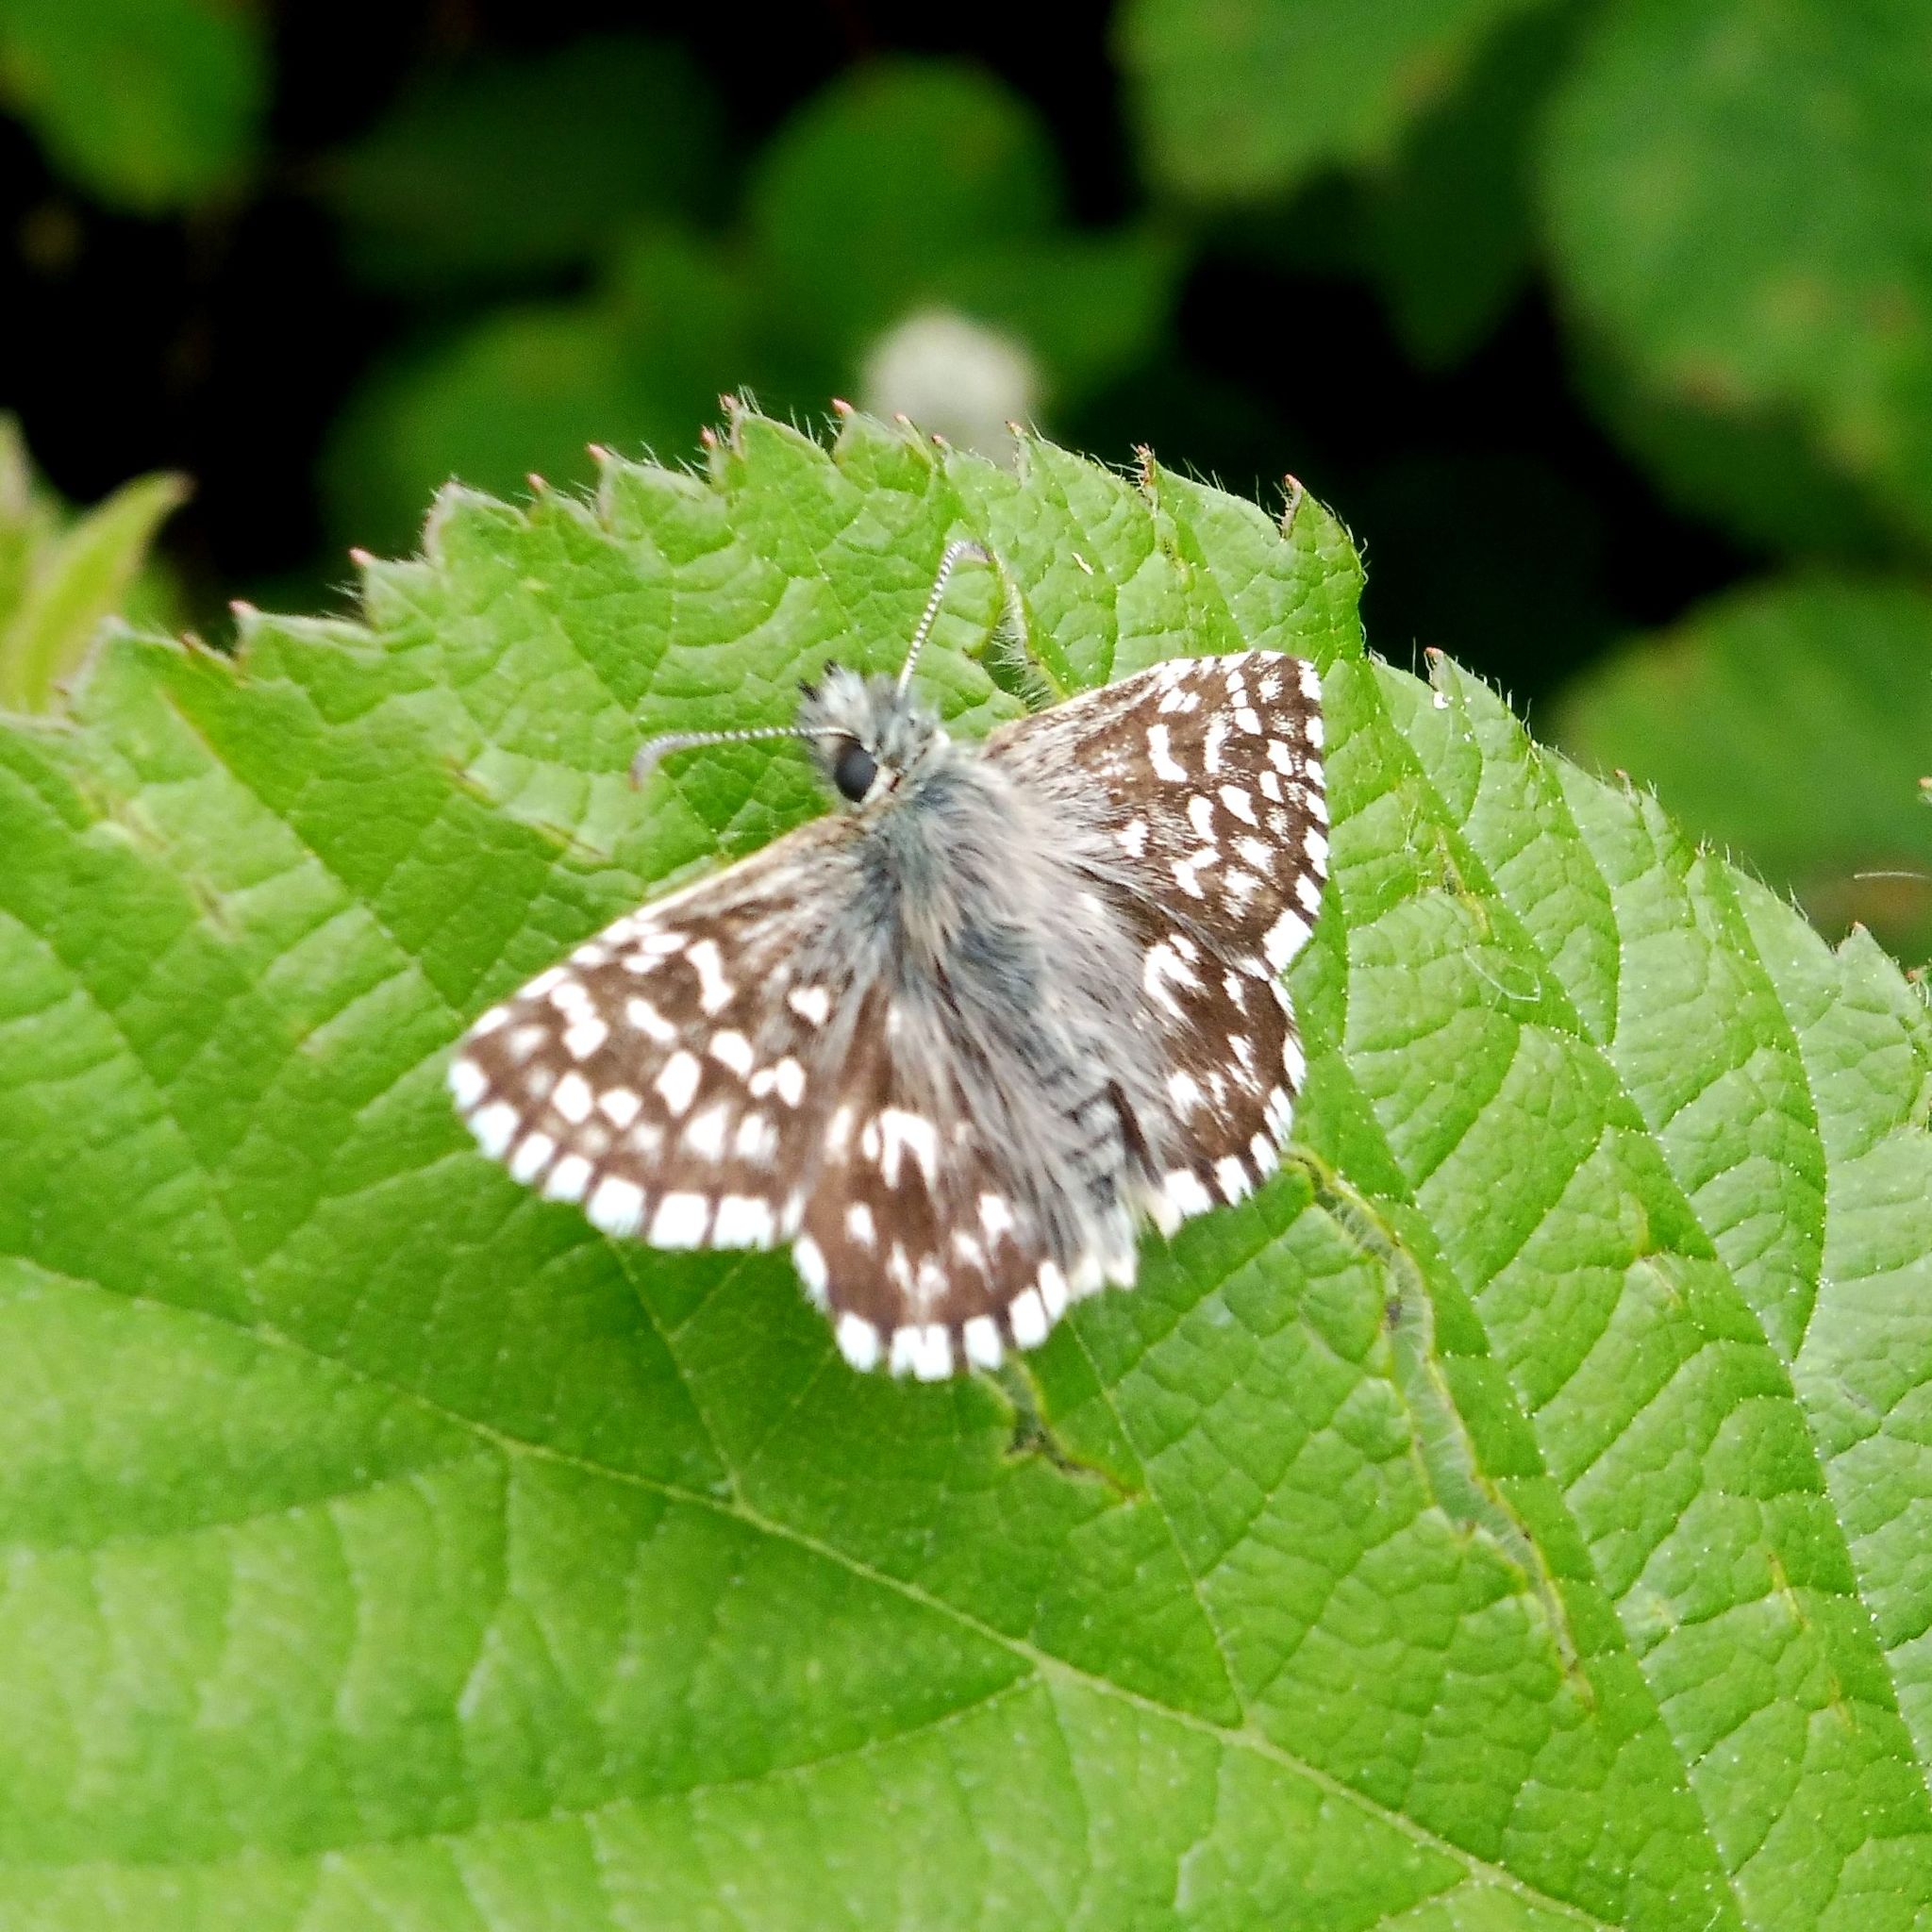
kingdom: Animalia
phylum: Arthropoda
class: Insecta
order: Lepidoptera
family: Hesperiidae
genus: Pyrgus
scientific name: Pyrgus malvae
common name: Grizzled skipper
